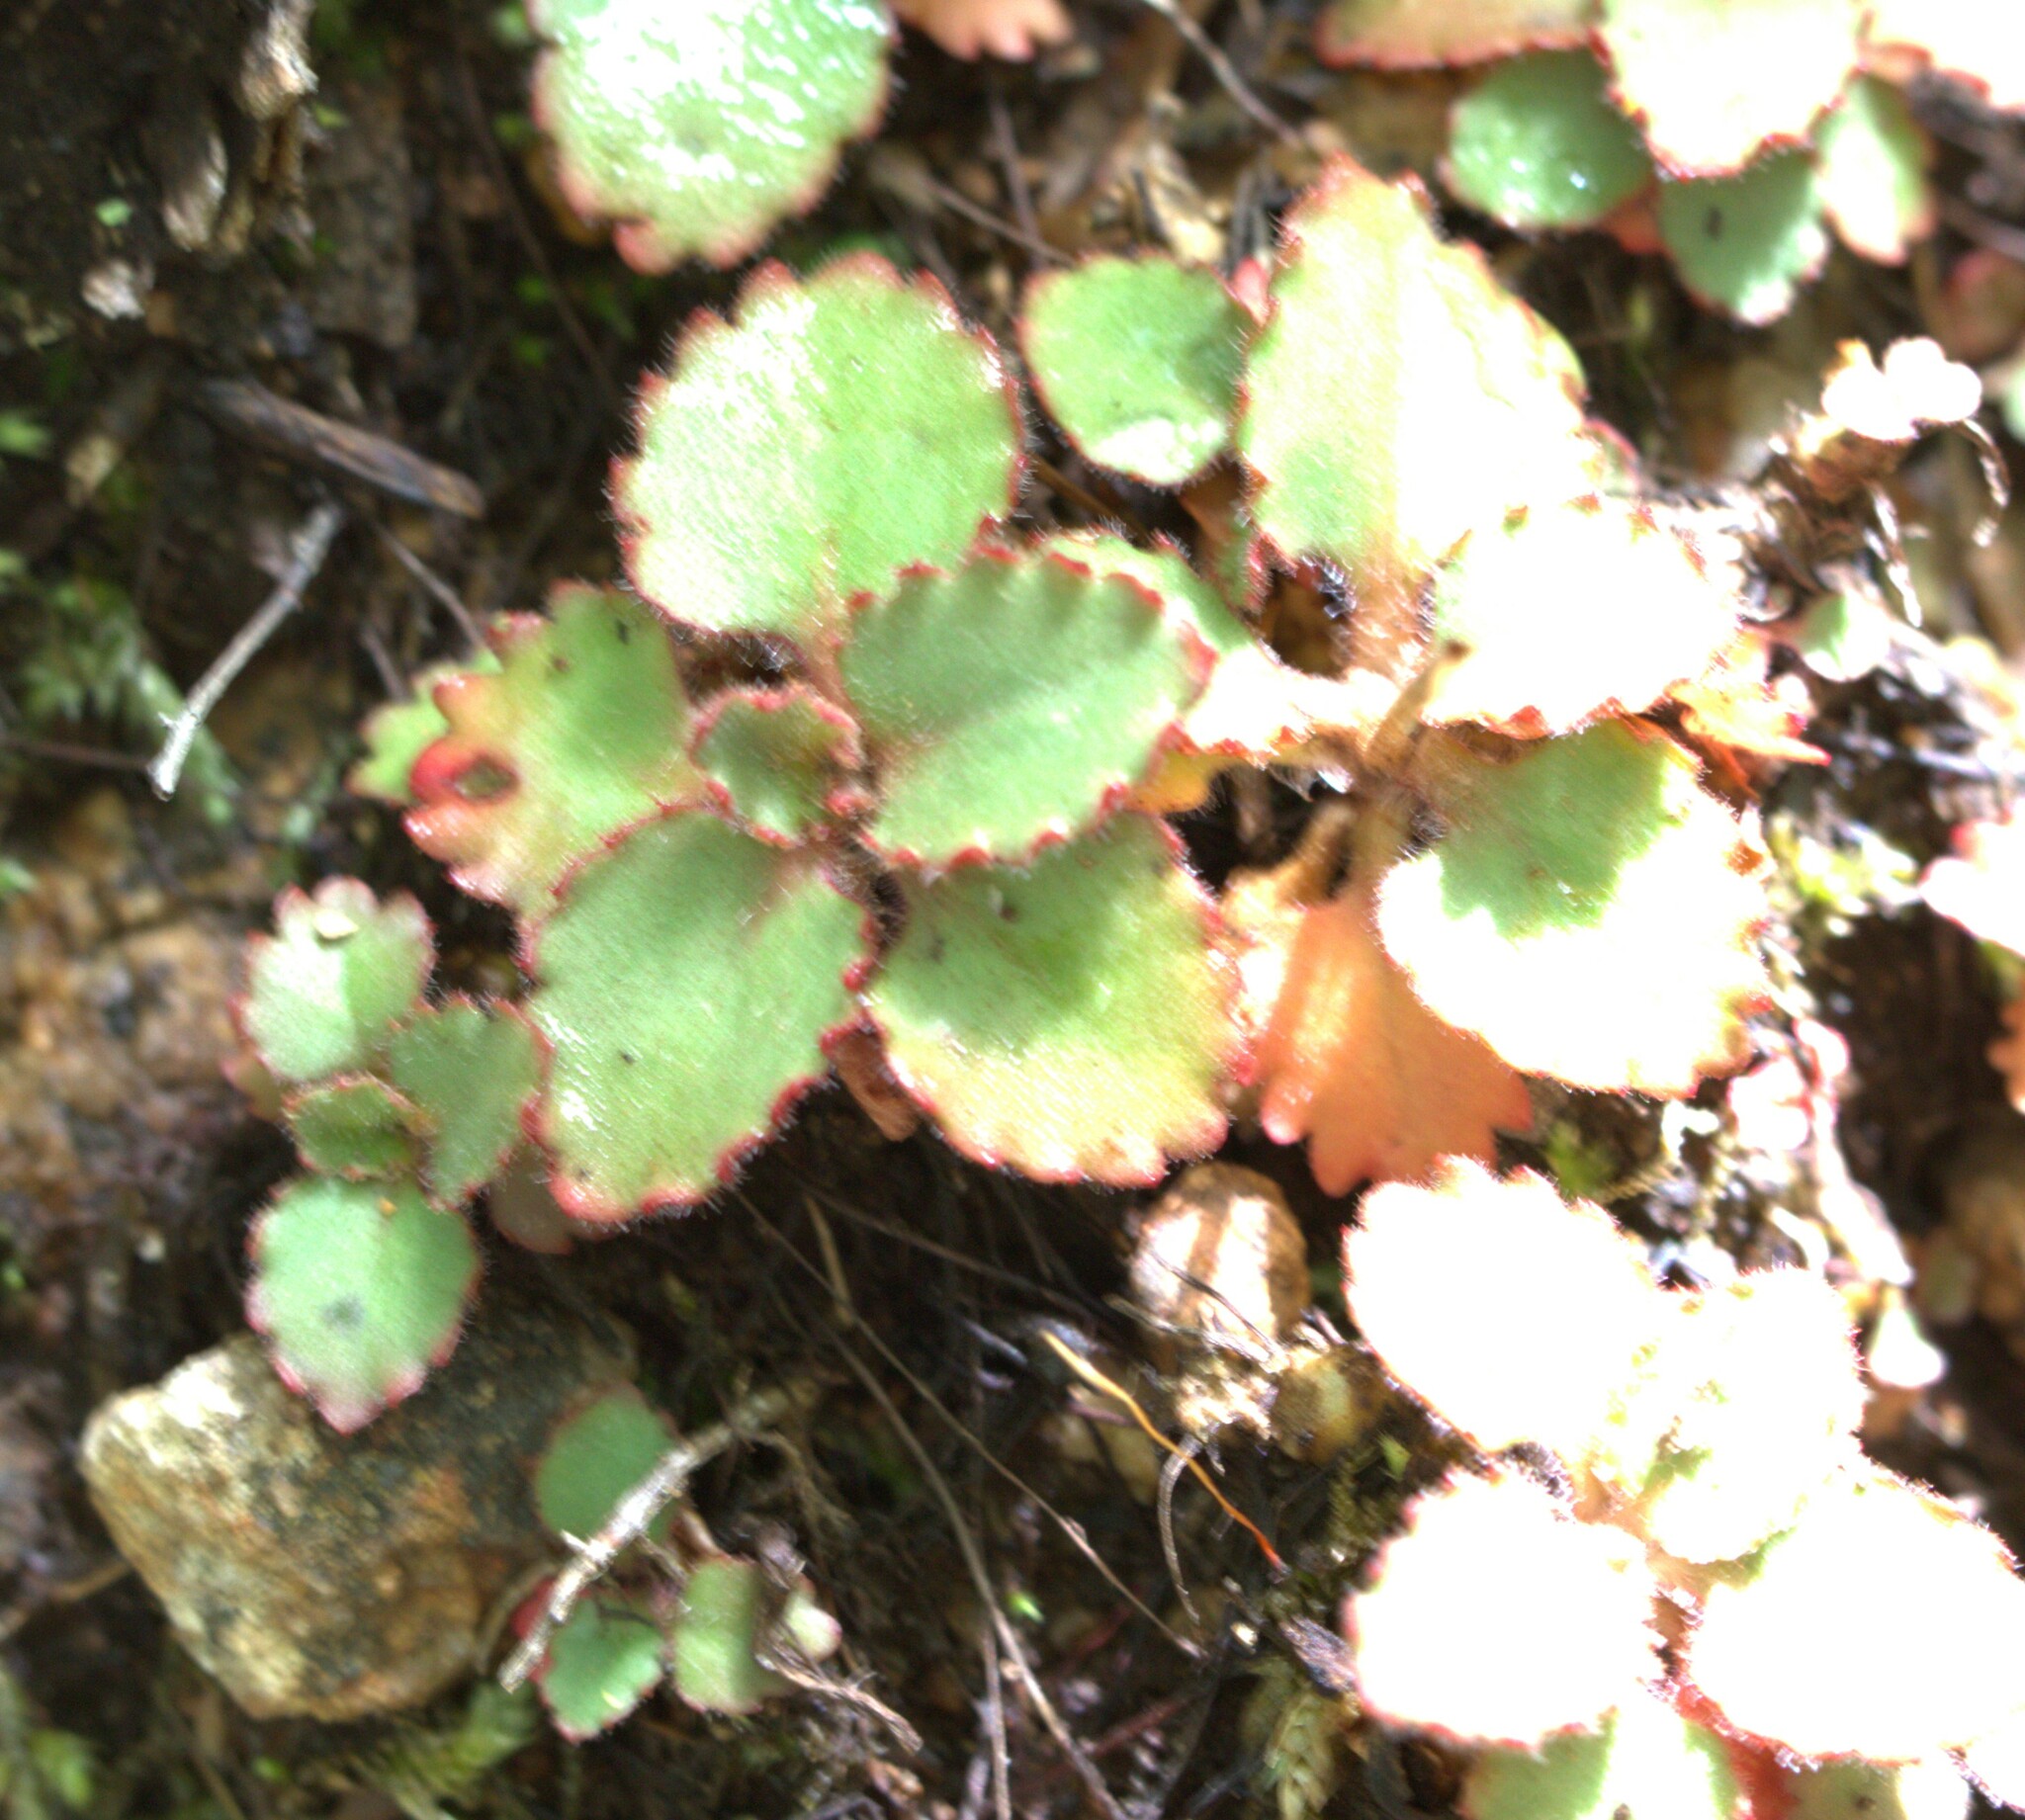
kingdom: Plantae
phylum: Tracheophyta
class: Magnoliopsida
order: Saxifragales
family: Saxifragaceae
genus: Micranthes
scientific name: Micranthes virginiensis
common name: Early saxifrage
